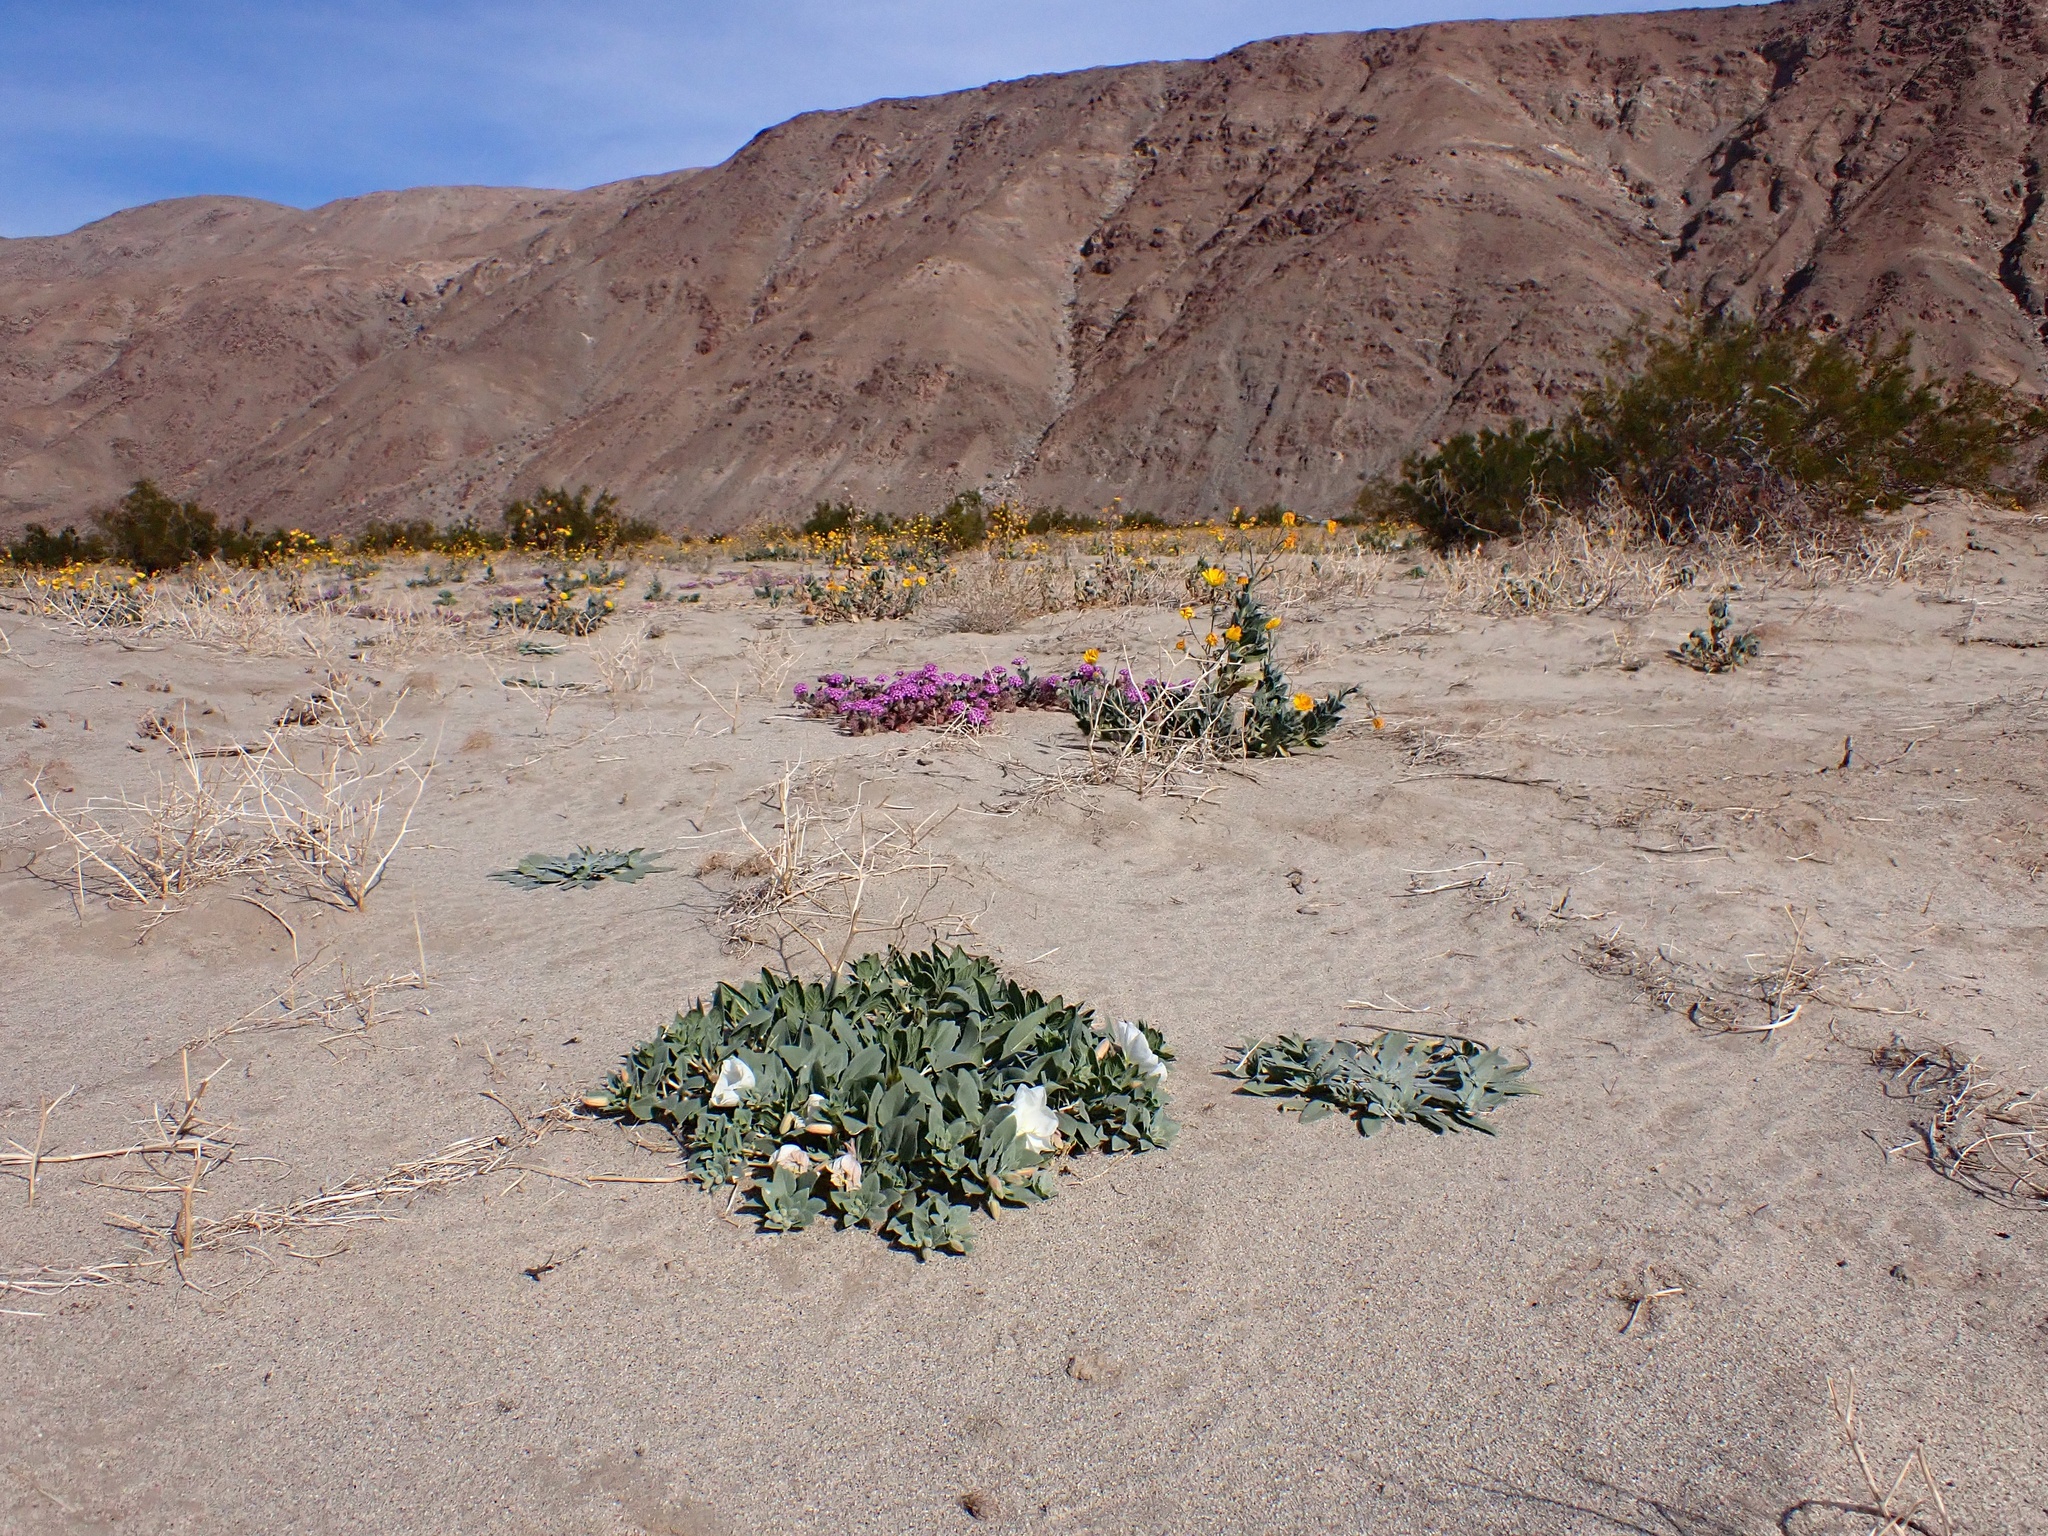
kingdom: Plantae
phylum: Tracheophyta
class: Magnoliopsida
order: Myrtales
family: Onagraceae
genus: Oenothera
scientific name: Oenothera deltoides
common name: Basket evening-primrose
